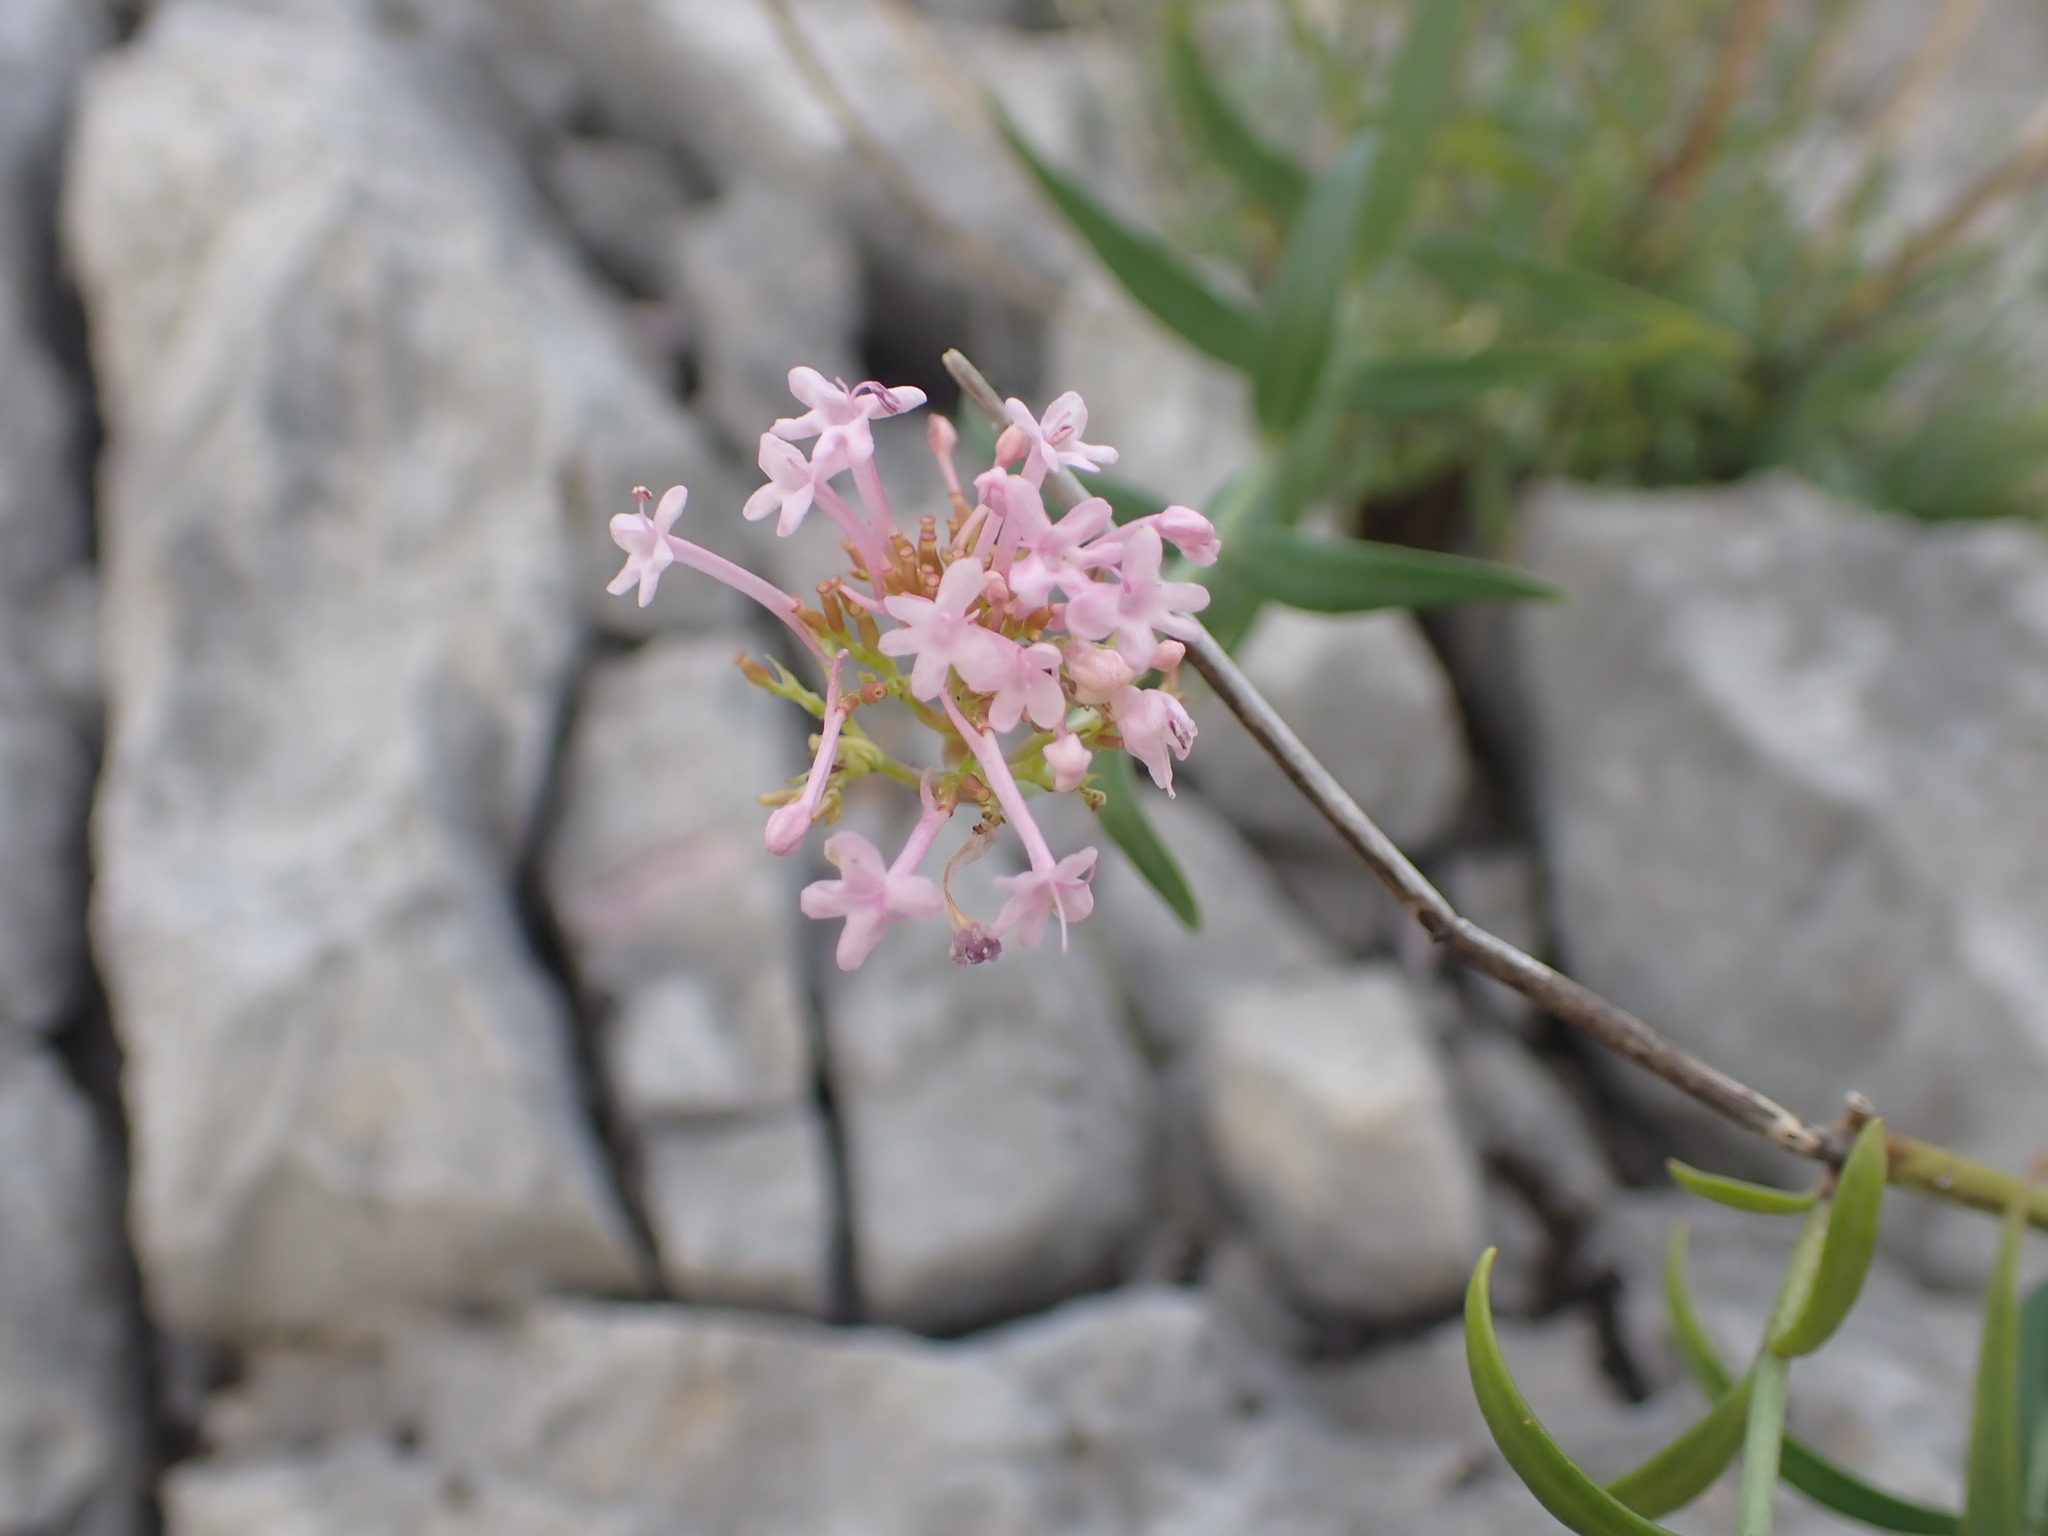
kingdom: Plantae
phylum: Tracheophyta
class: Magnoliopsida
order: Dipsacales
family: Caprifoliaceae
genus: Centranthus
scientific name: Centranthus lecoqii
